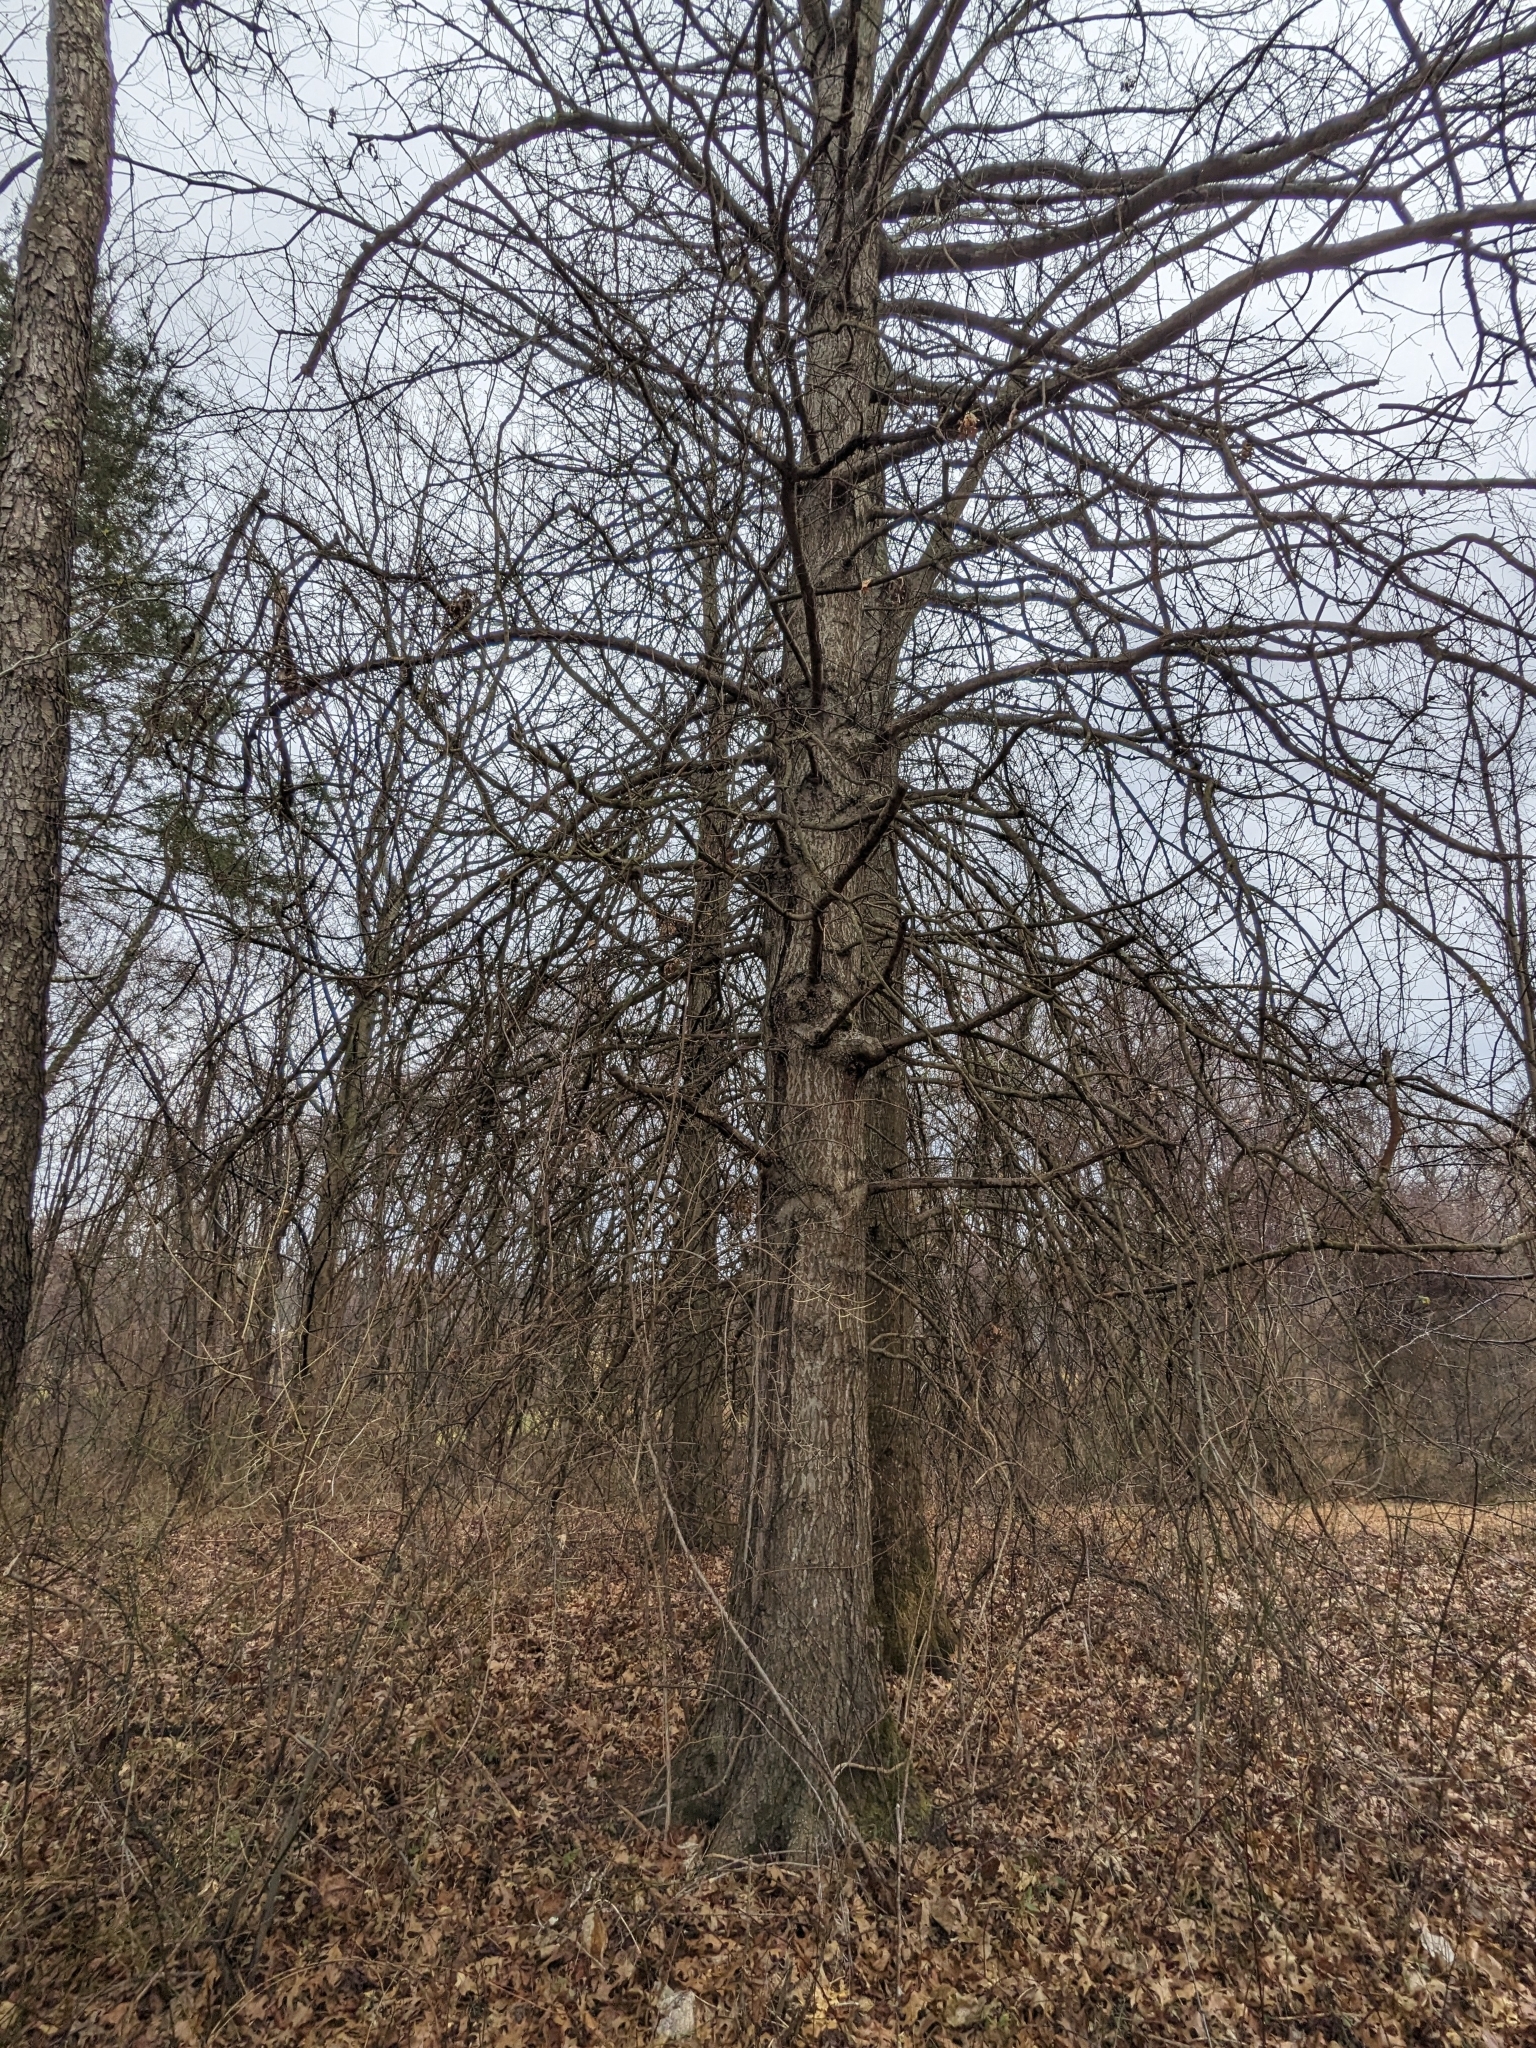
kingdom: Plantae
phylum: Tracheophyta
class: Magnoliopsida
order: Fagales
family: Fagaceae
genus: Quercus
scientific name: Quercus palustris
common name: Pin oak
